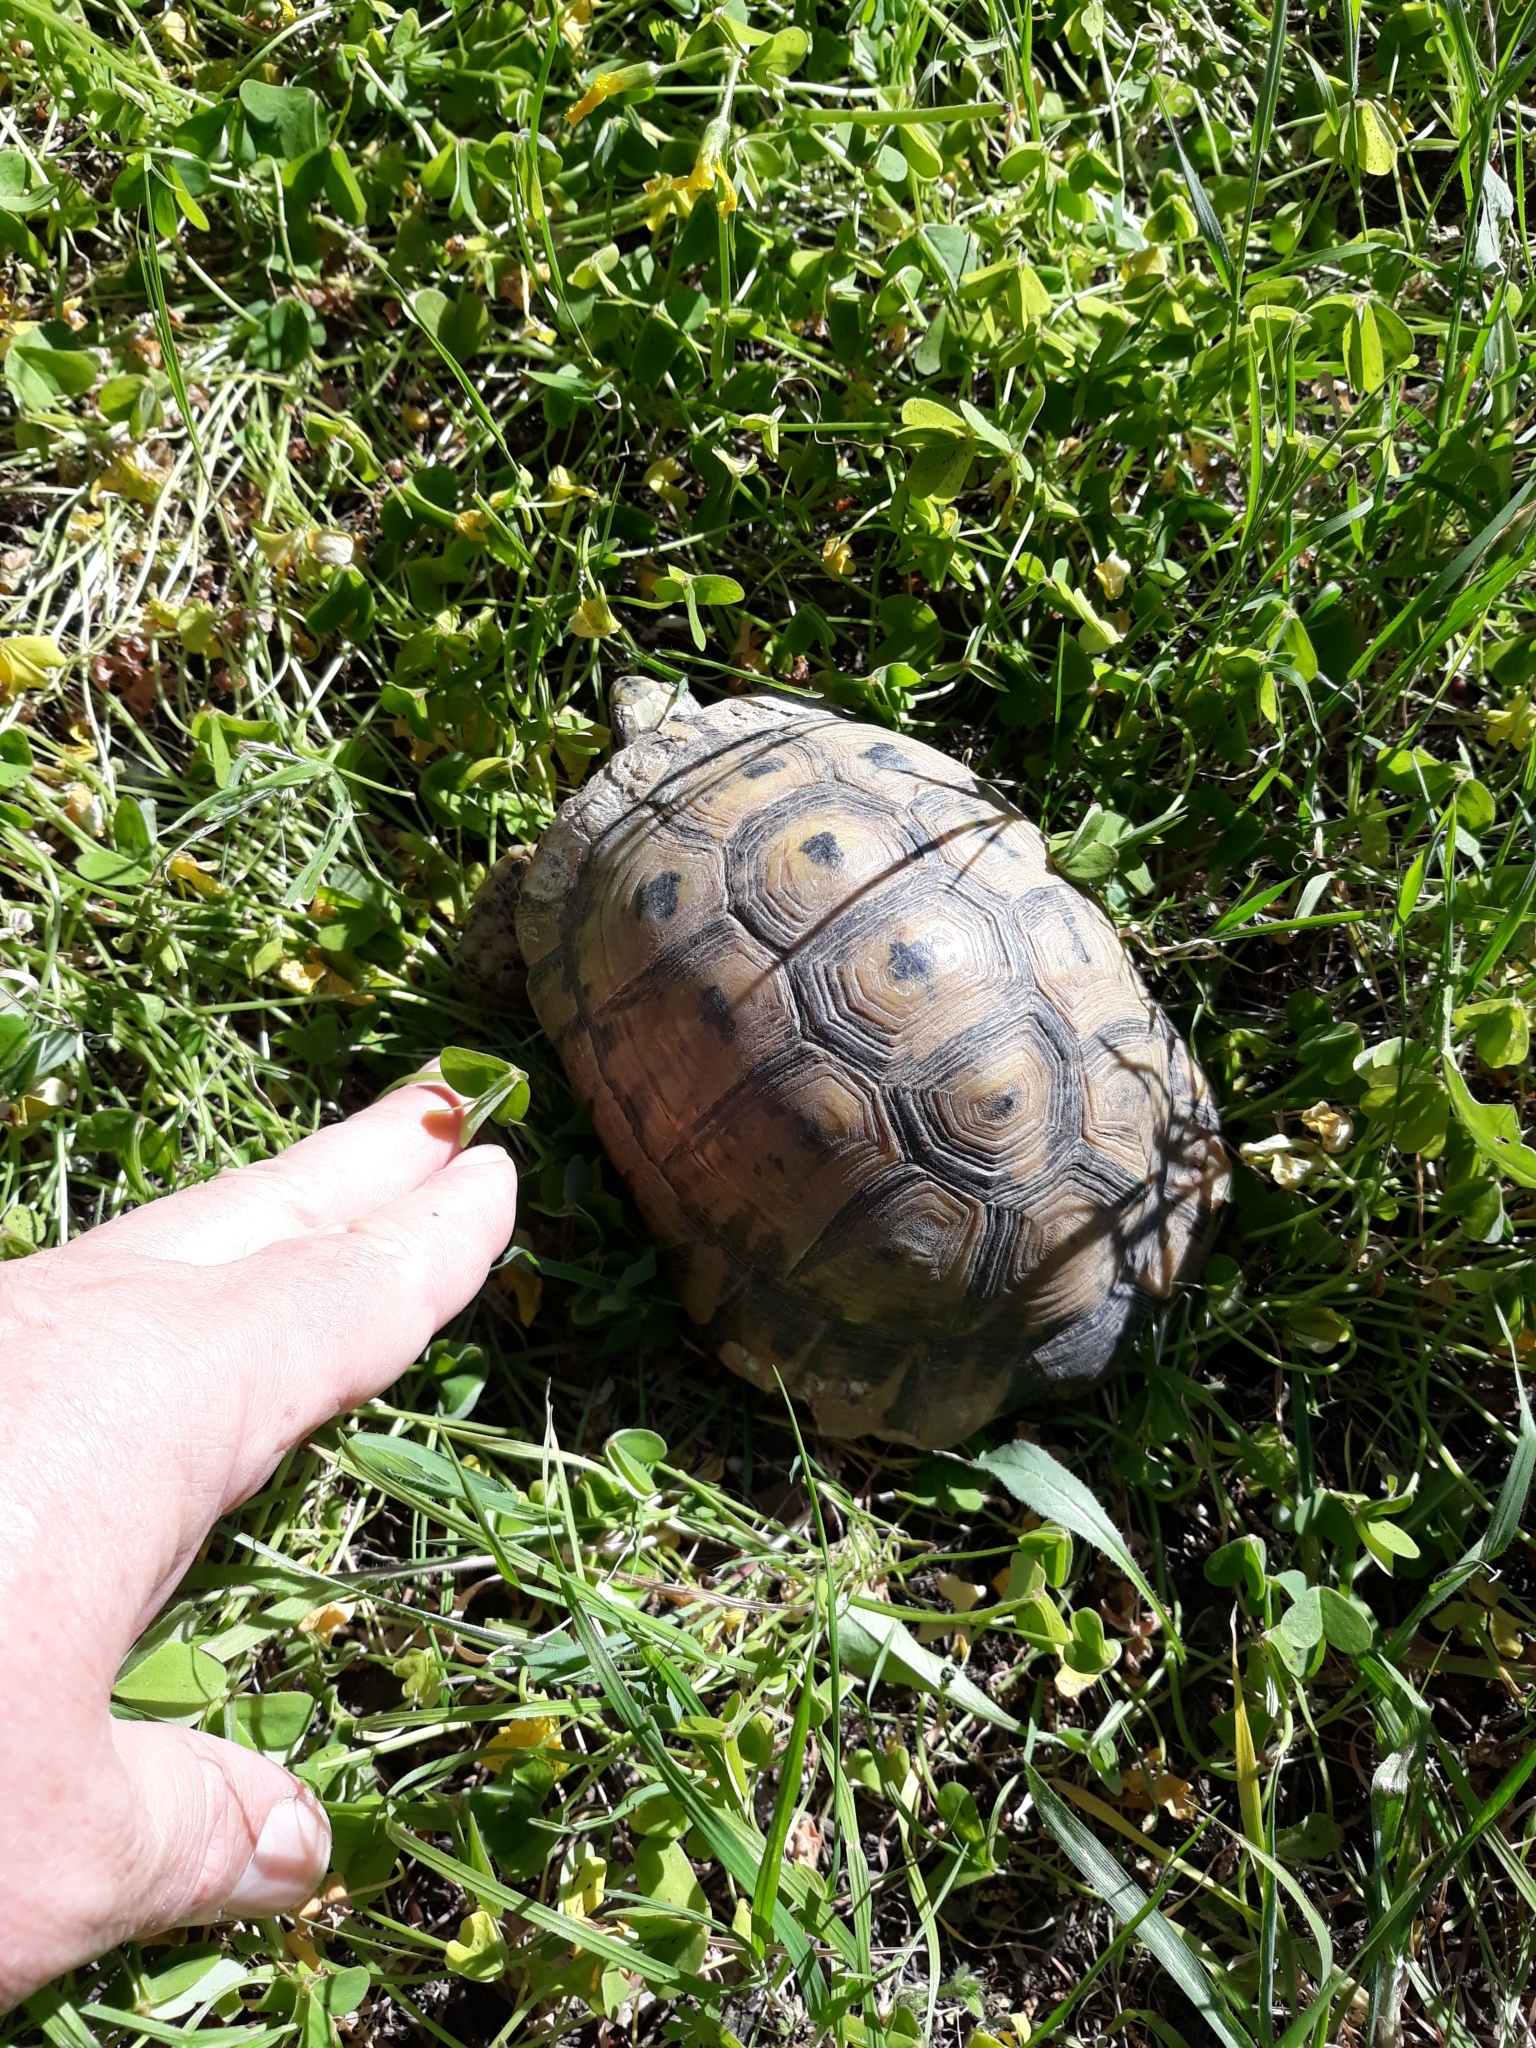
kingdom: Animalia
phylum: Chordata
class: Testudines
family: Testudinidae
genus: Testudo
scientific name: Testudo graeca
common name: Common tortoise
